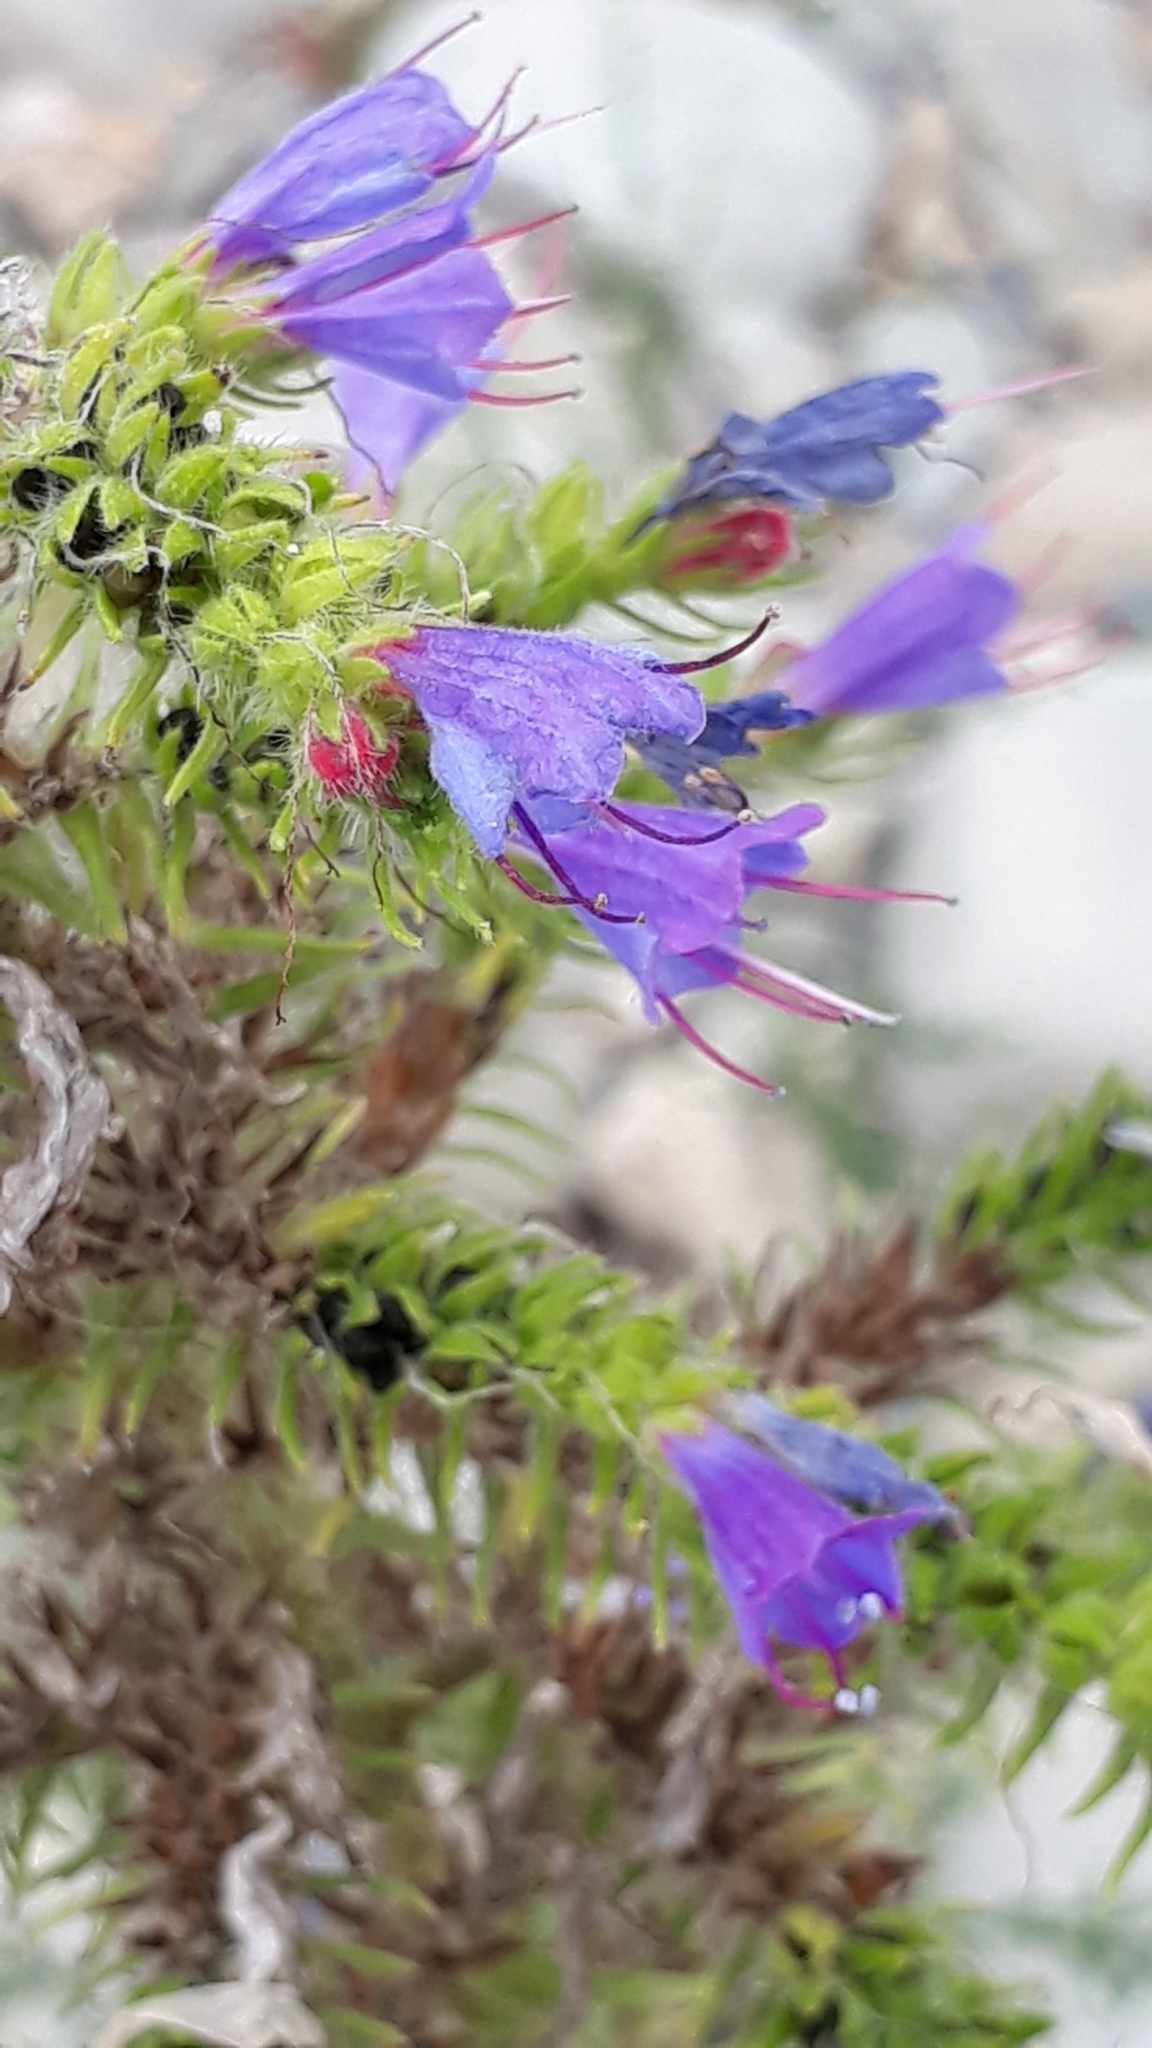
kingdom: Plantae
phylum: Tracheophyta
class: Magnoliopsida
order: Boraginales
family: Boraginaceae
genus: Echium
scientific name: Echium vulgare
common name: Common viper's bugloss
